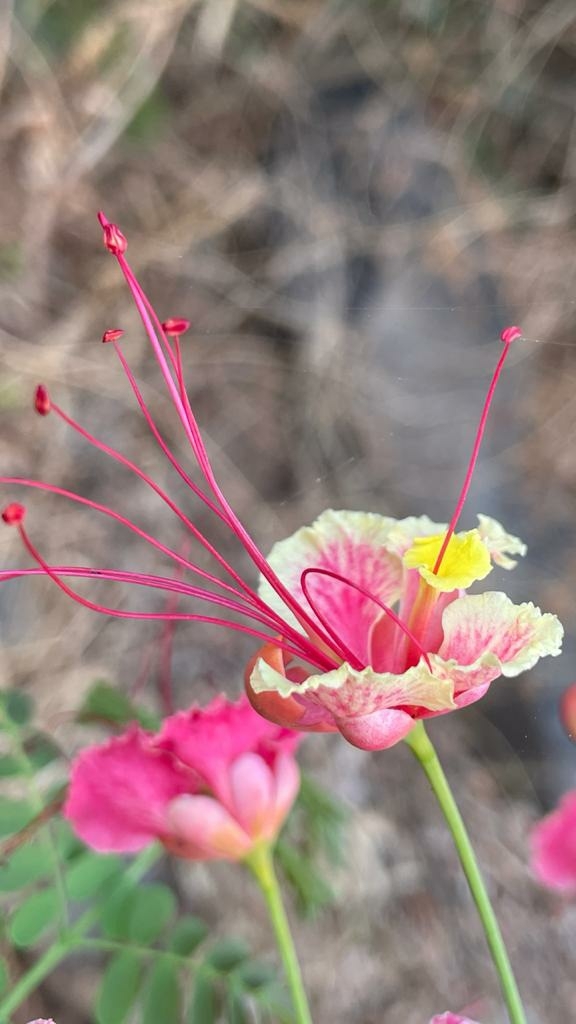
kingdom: Plantae
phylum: Tracheophyta
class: Magnoliopsida
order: Fabales
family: Fabaceae
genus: Caesalpinia
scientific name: Caesalpinia pulcherrima
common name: Pride-of-barbados
